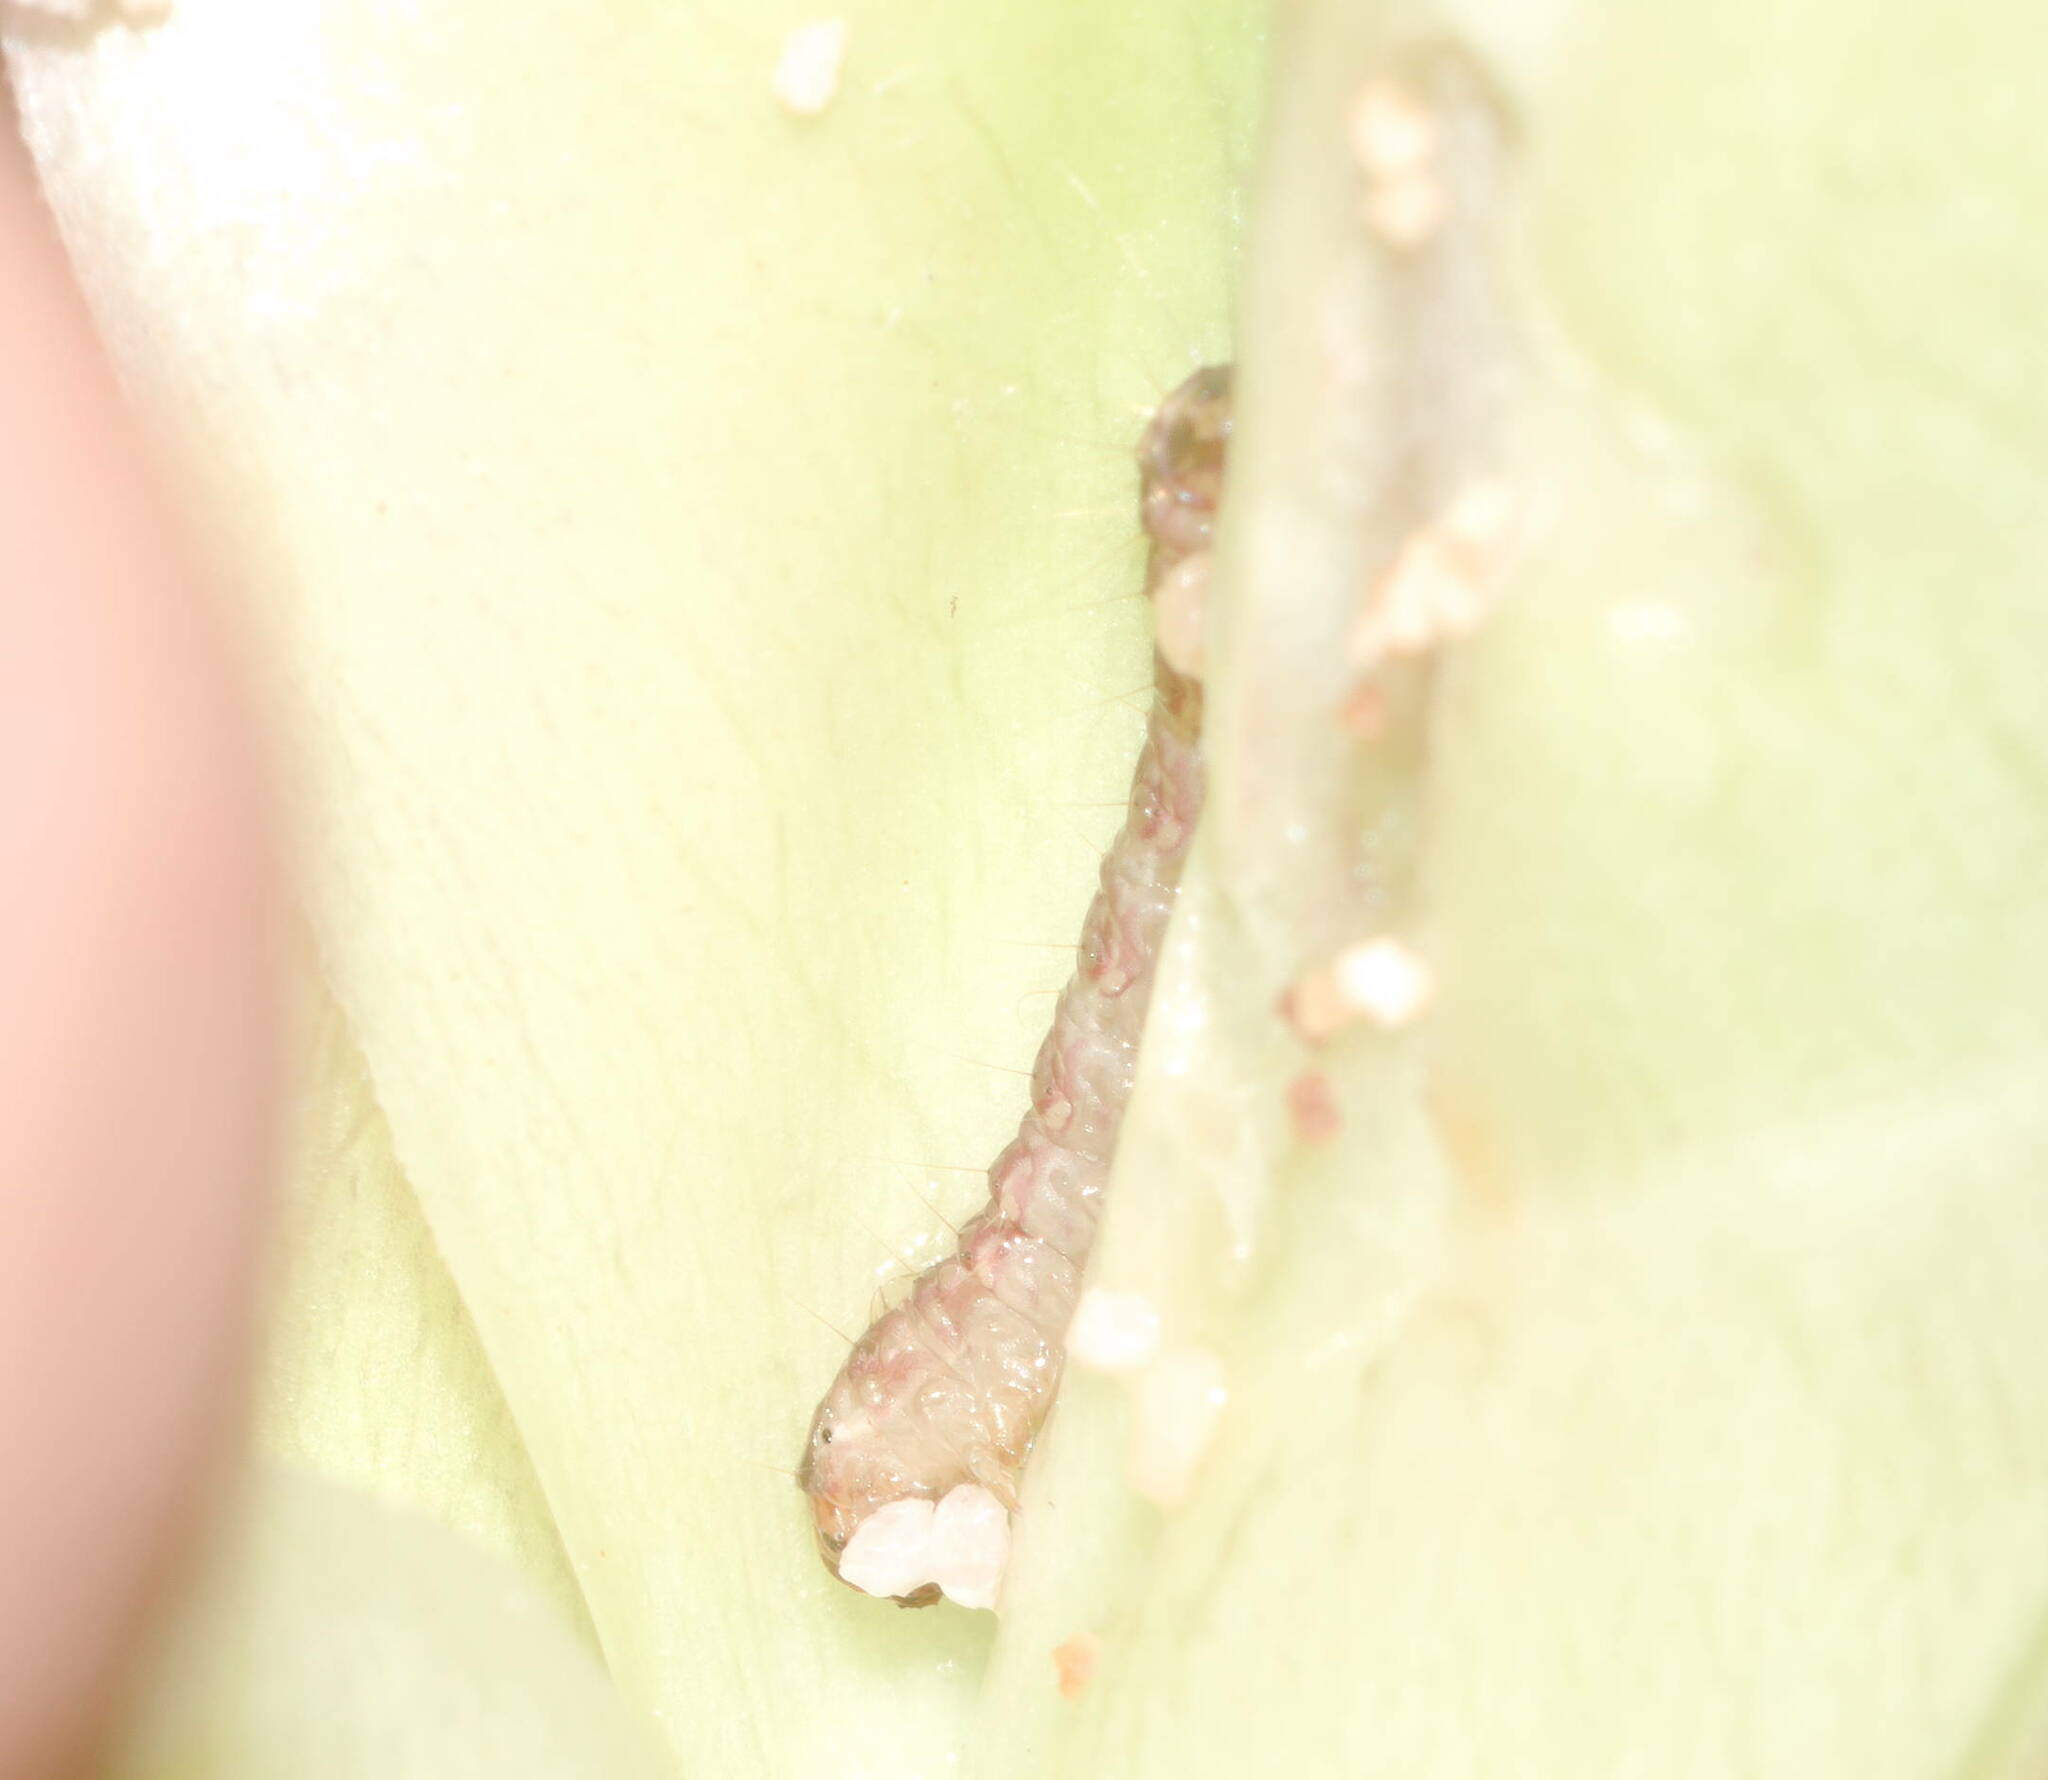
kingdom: Animalia
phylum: Arthropoda
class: Insecta
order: Lepidoptera
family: Tortricidae
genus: Pararrhaptica
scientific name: Pararrhaptica sublichenoides
